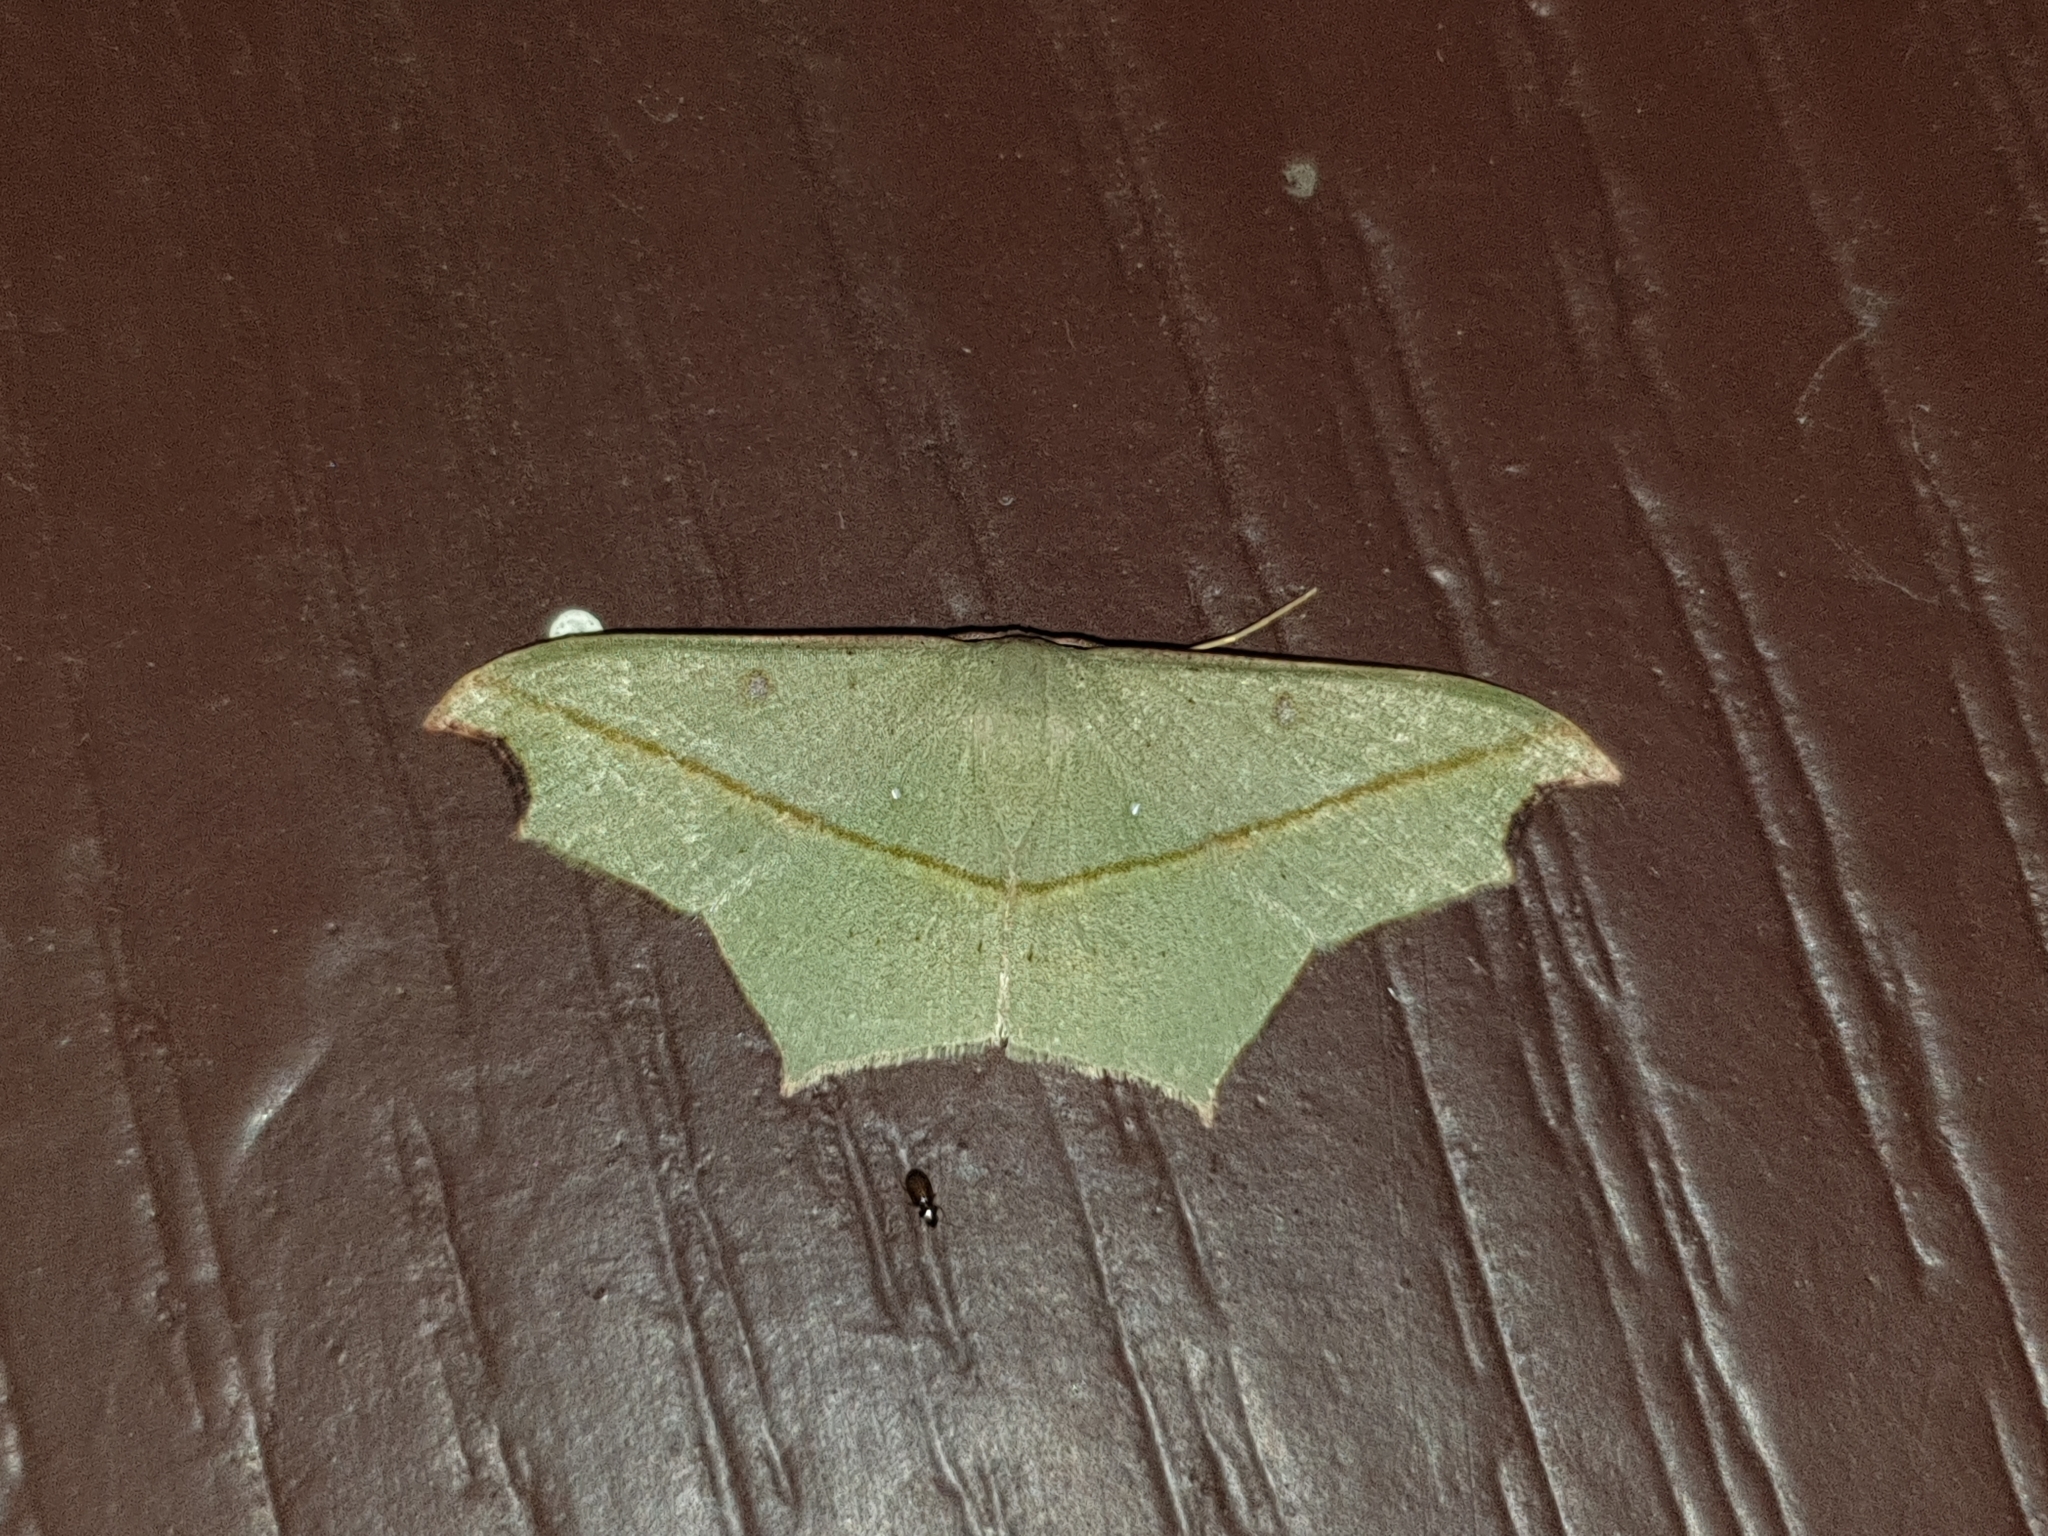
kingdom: Animalia
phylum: Arthropoda
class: Insecta
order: Lepidoptera
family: Geometridae
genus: Traminda
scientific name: Traminda aventiaria
